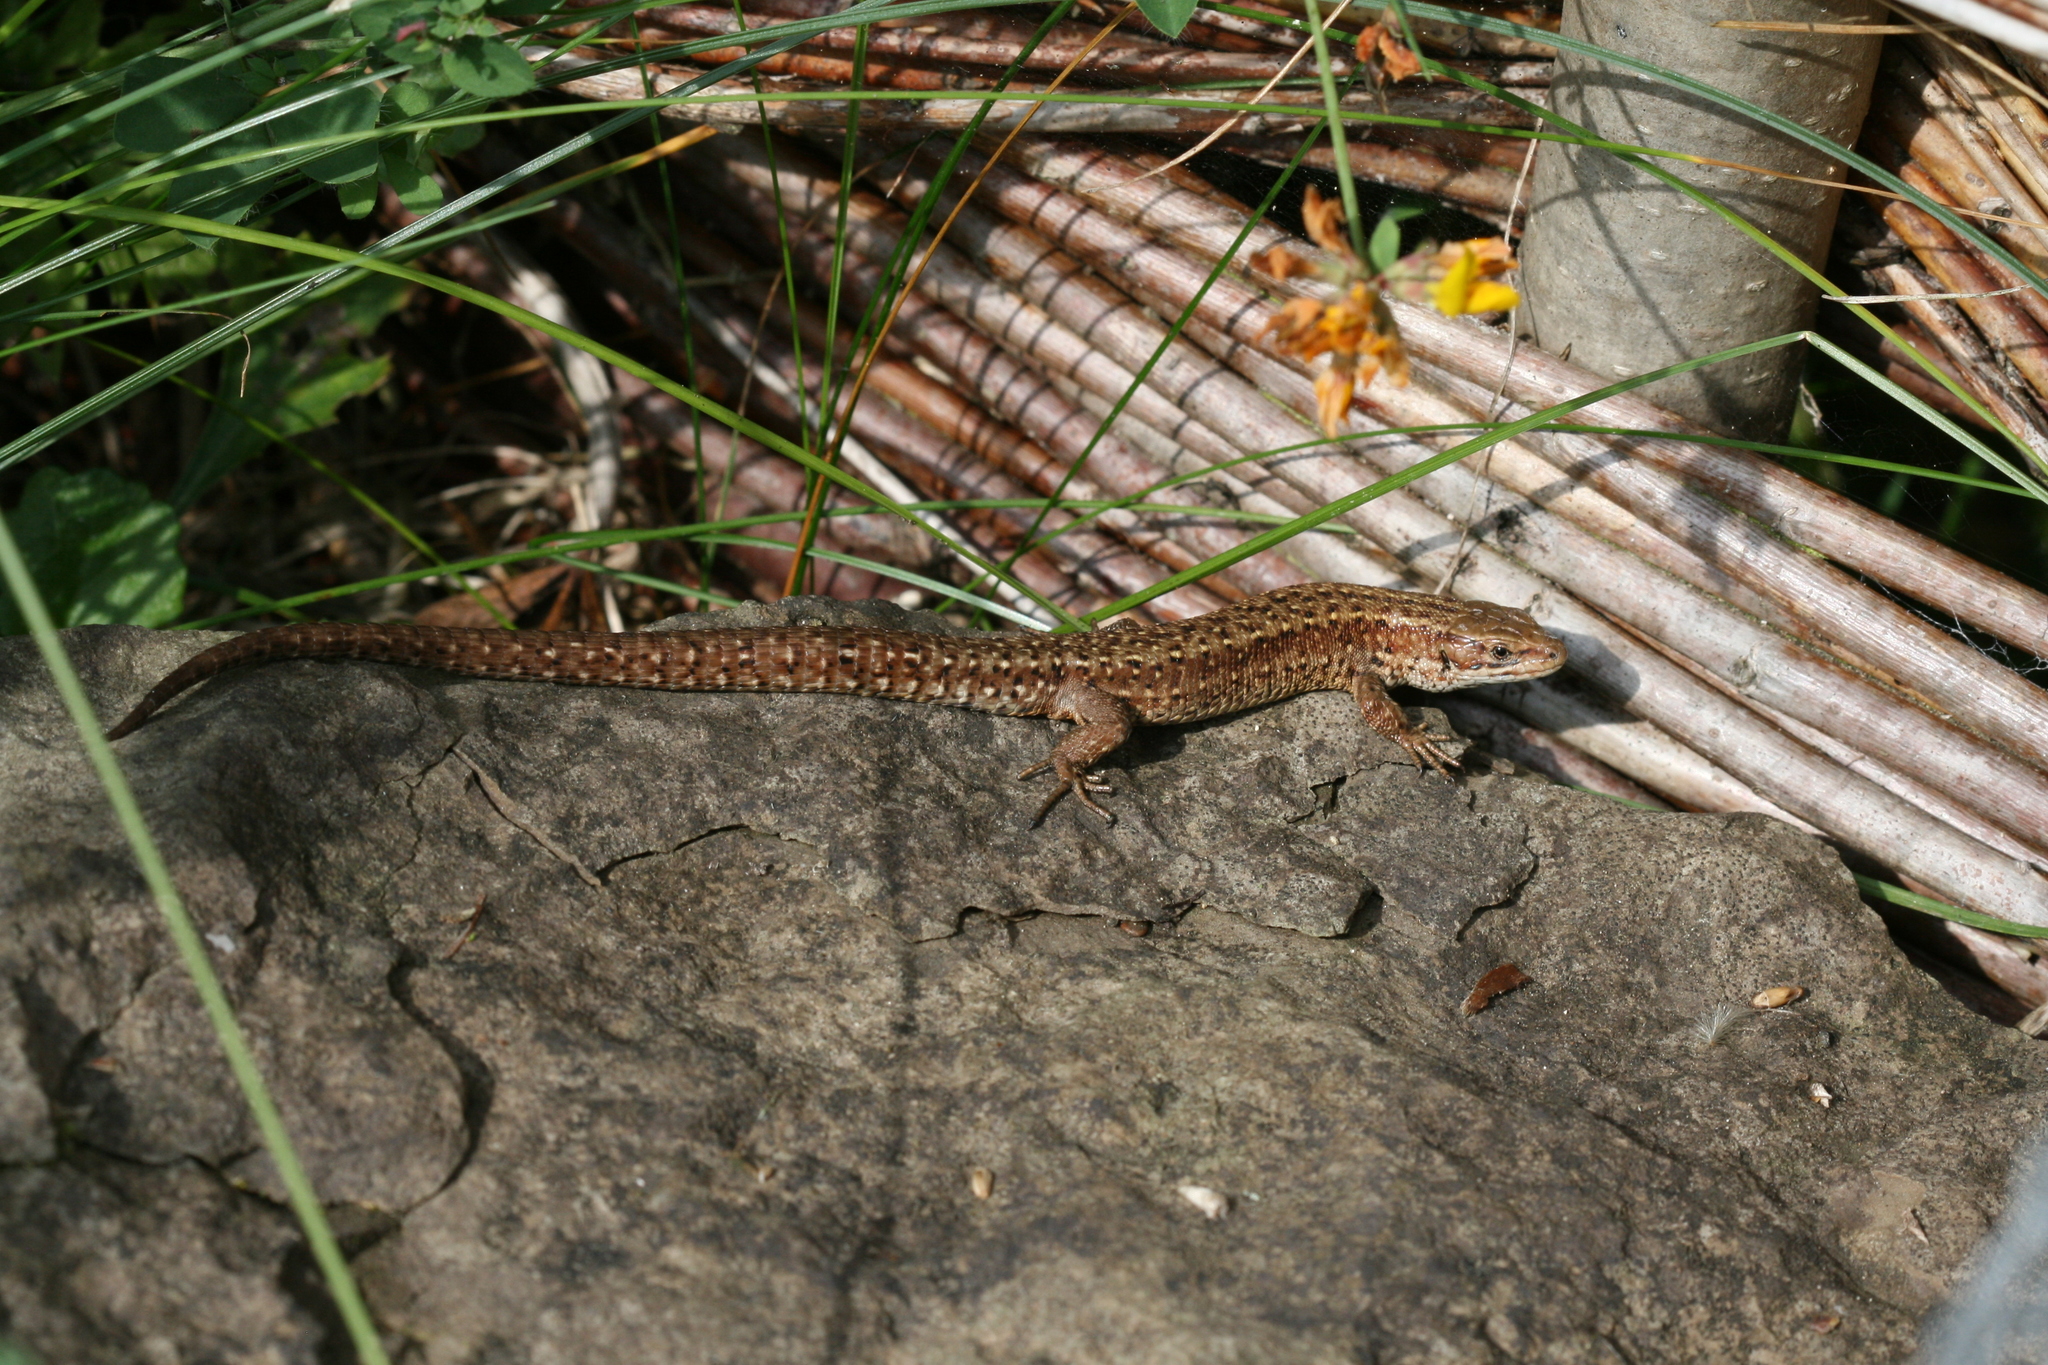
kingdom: Animalia
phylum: Chordata
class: Squamata
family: Lacertidae
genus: Zootoca
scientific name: Zootoca vivipara
